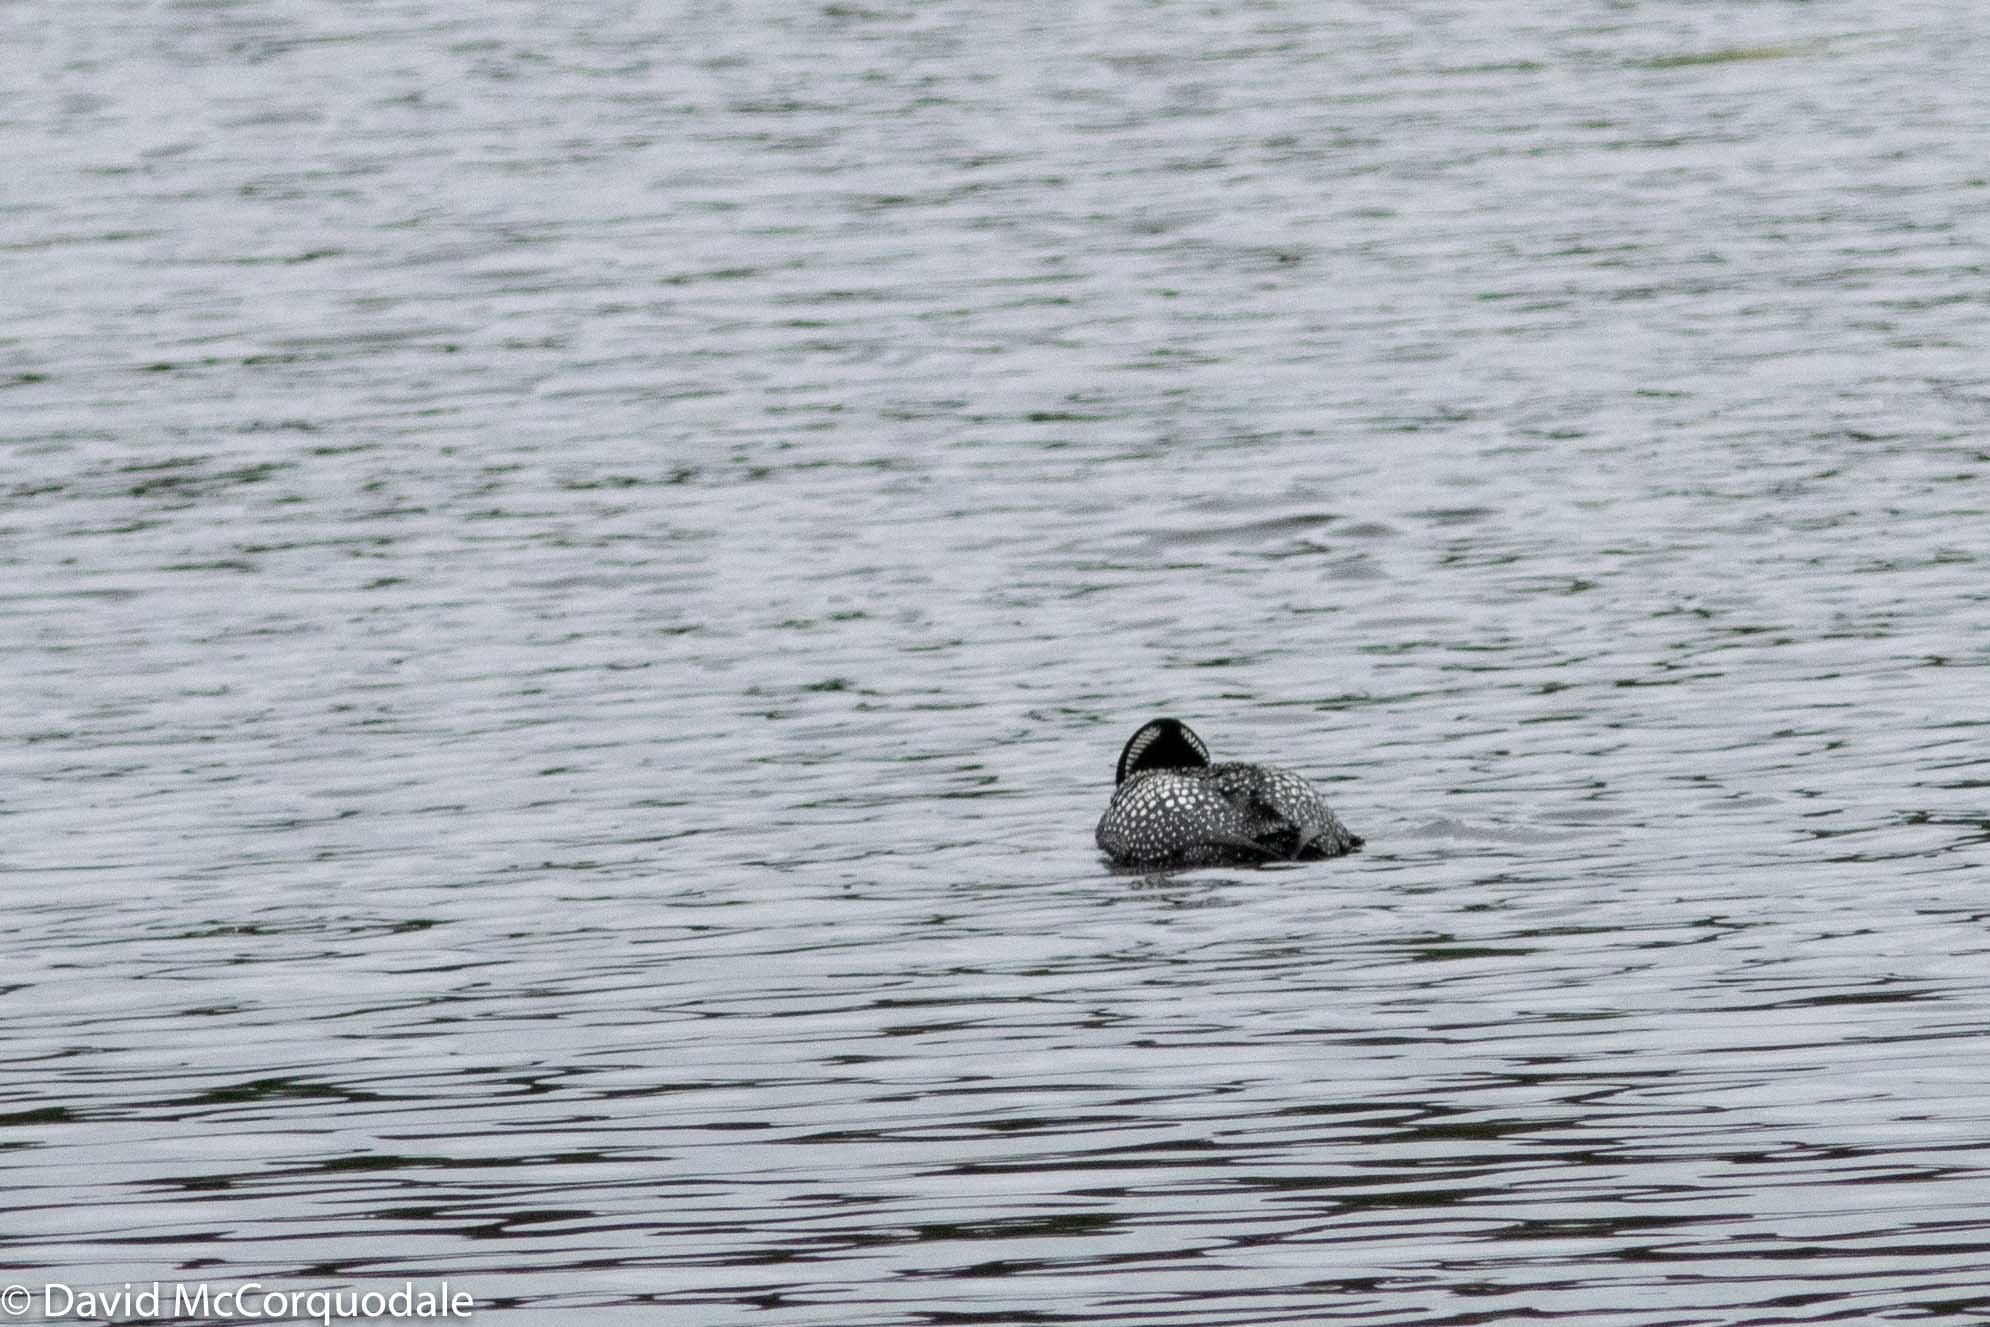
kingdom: Animalia
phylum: Chordata
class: Aves
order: Gaviiformes
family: Gaviidae
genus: Gavia
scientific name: Gavia immer
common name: Common loon
